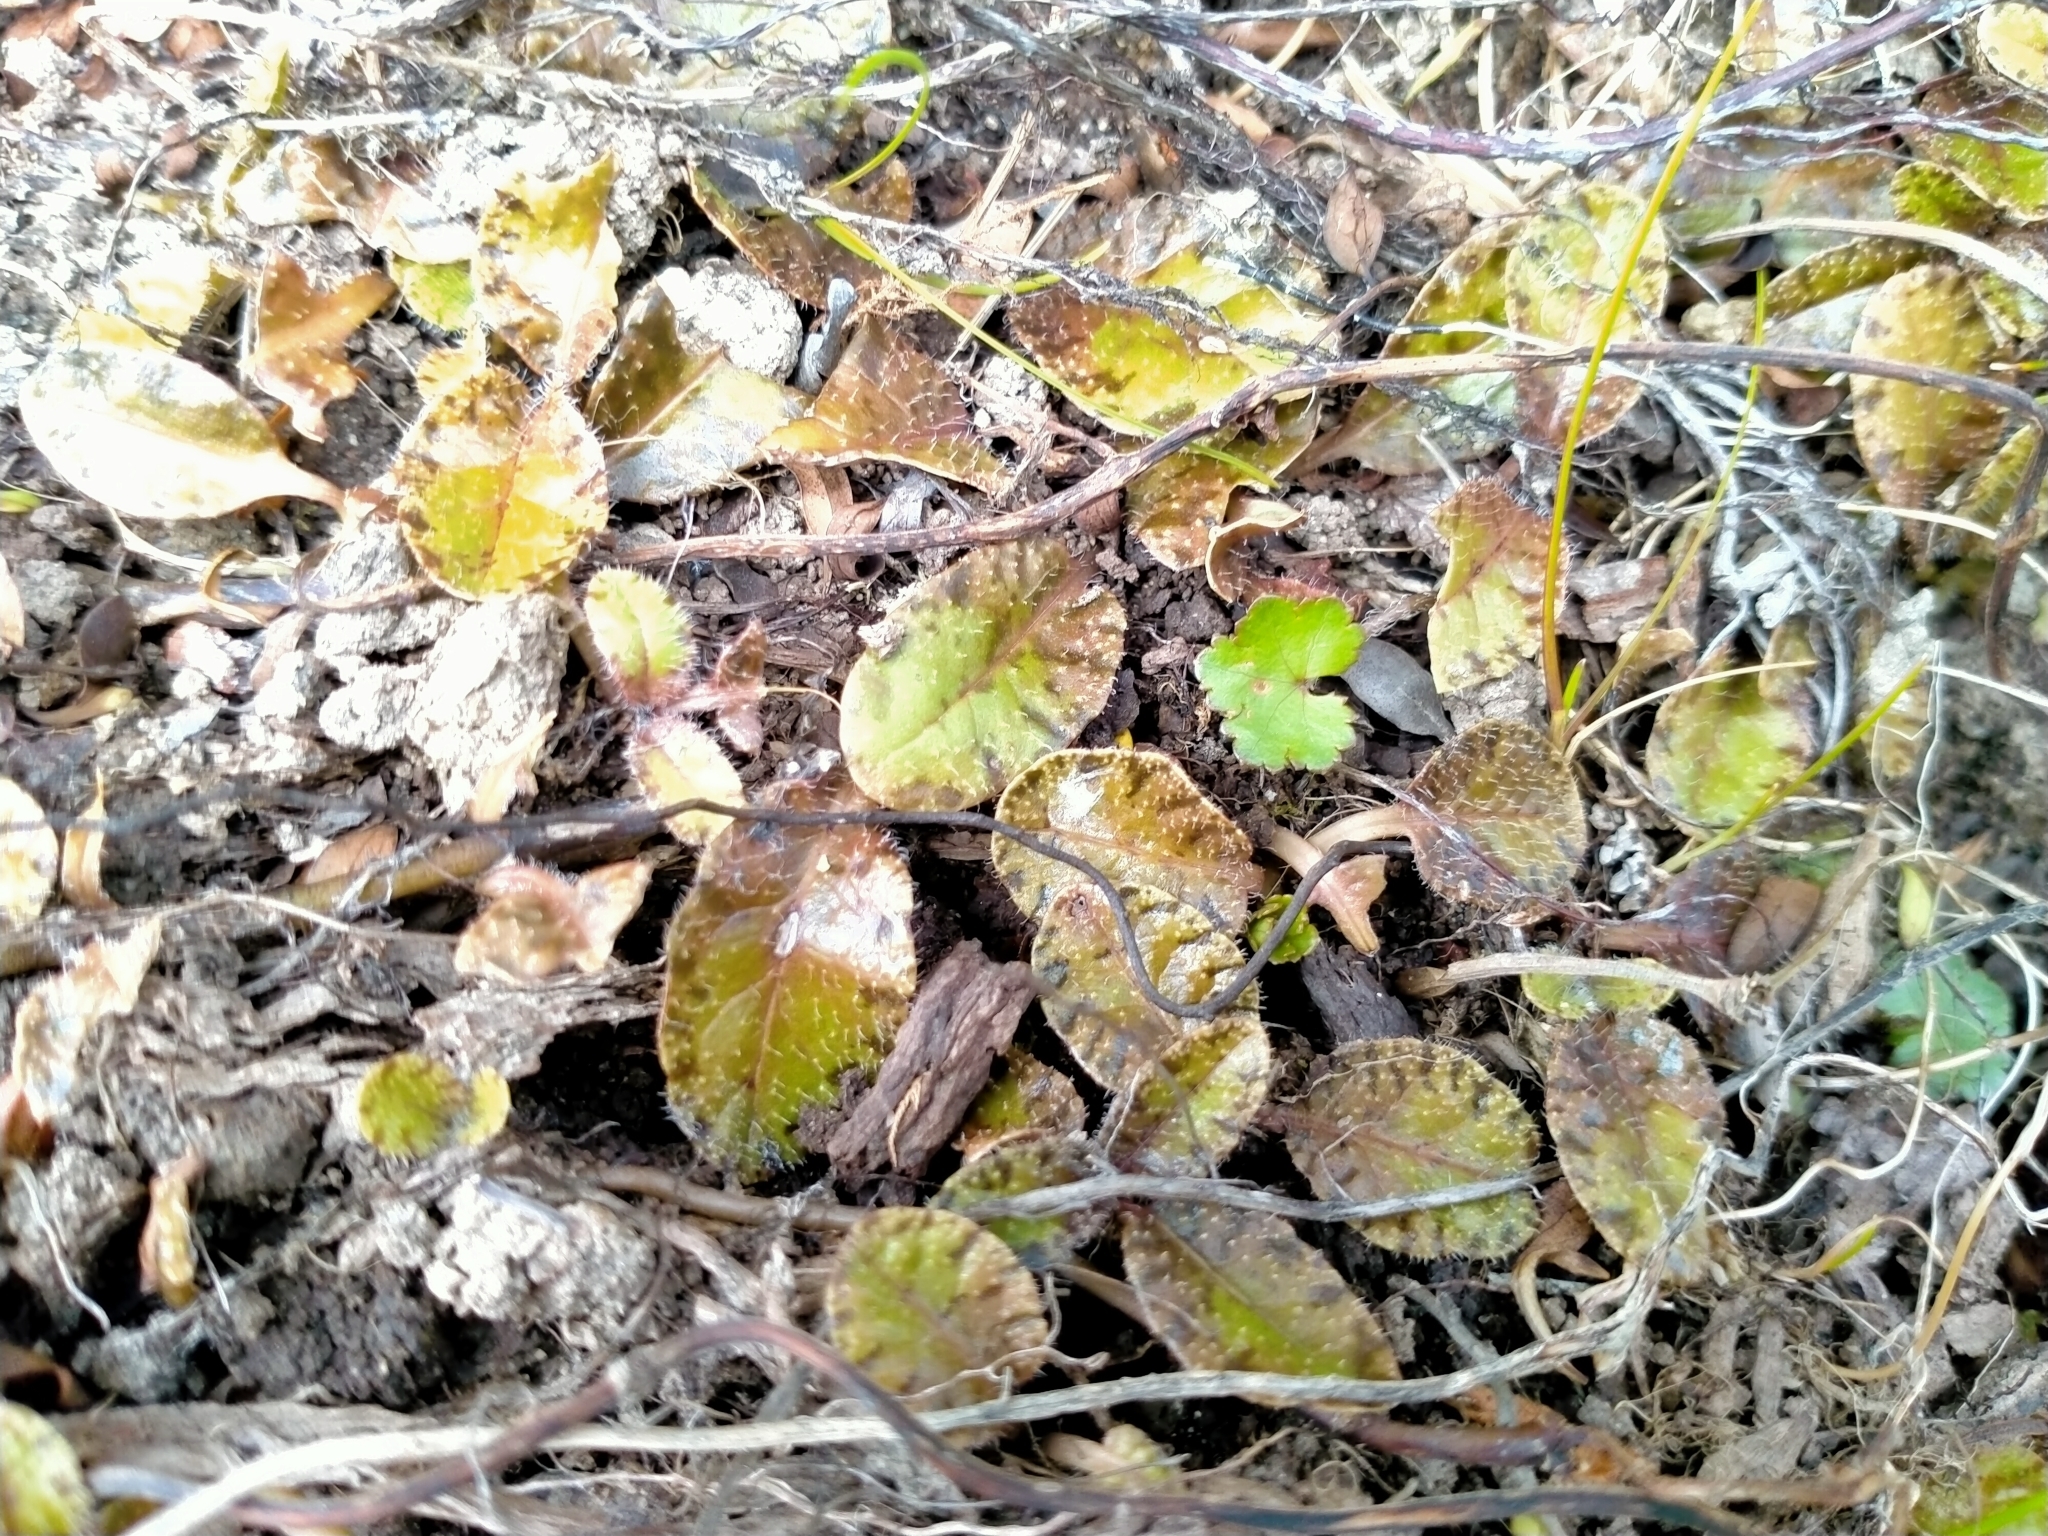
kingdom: Plantae
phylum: Tracheophyta
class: Magnoliopsida
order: Lamiales
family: Mazaceae
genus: Mazus
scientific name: Mazus radicans
